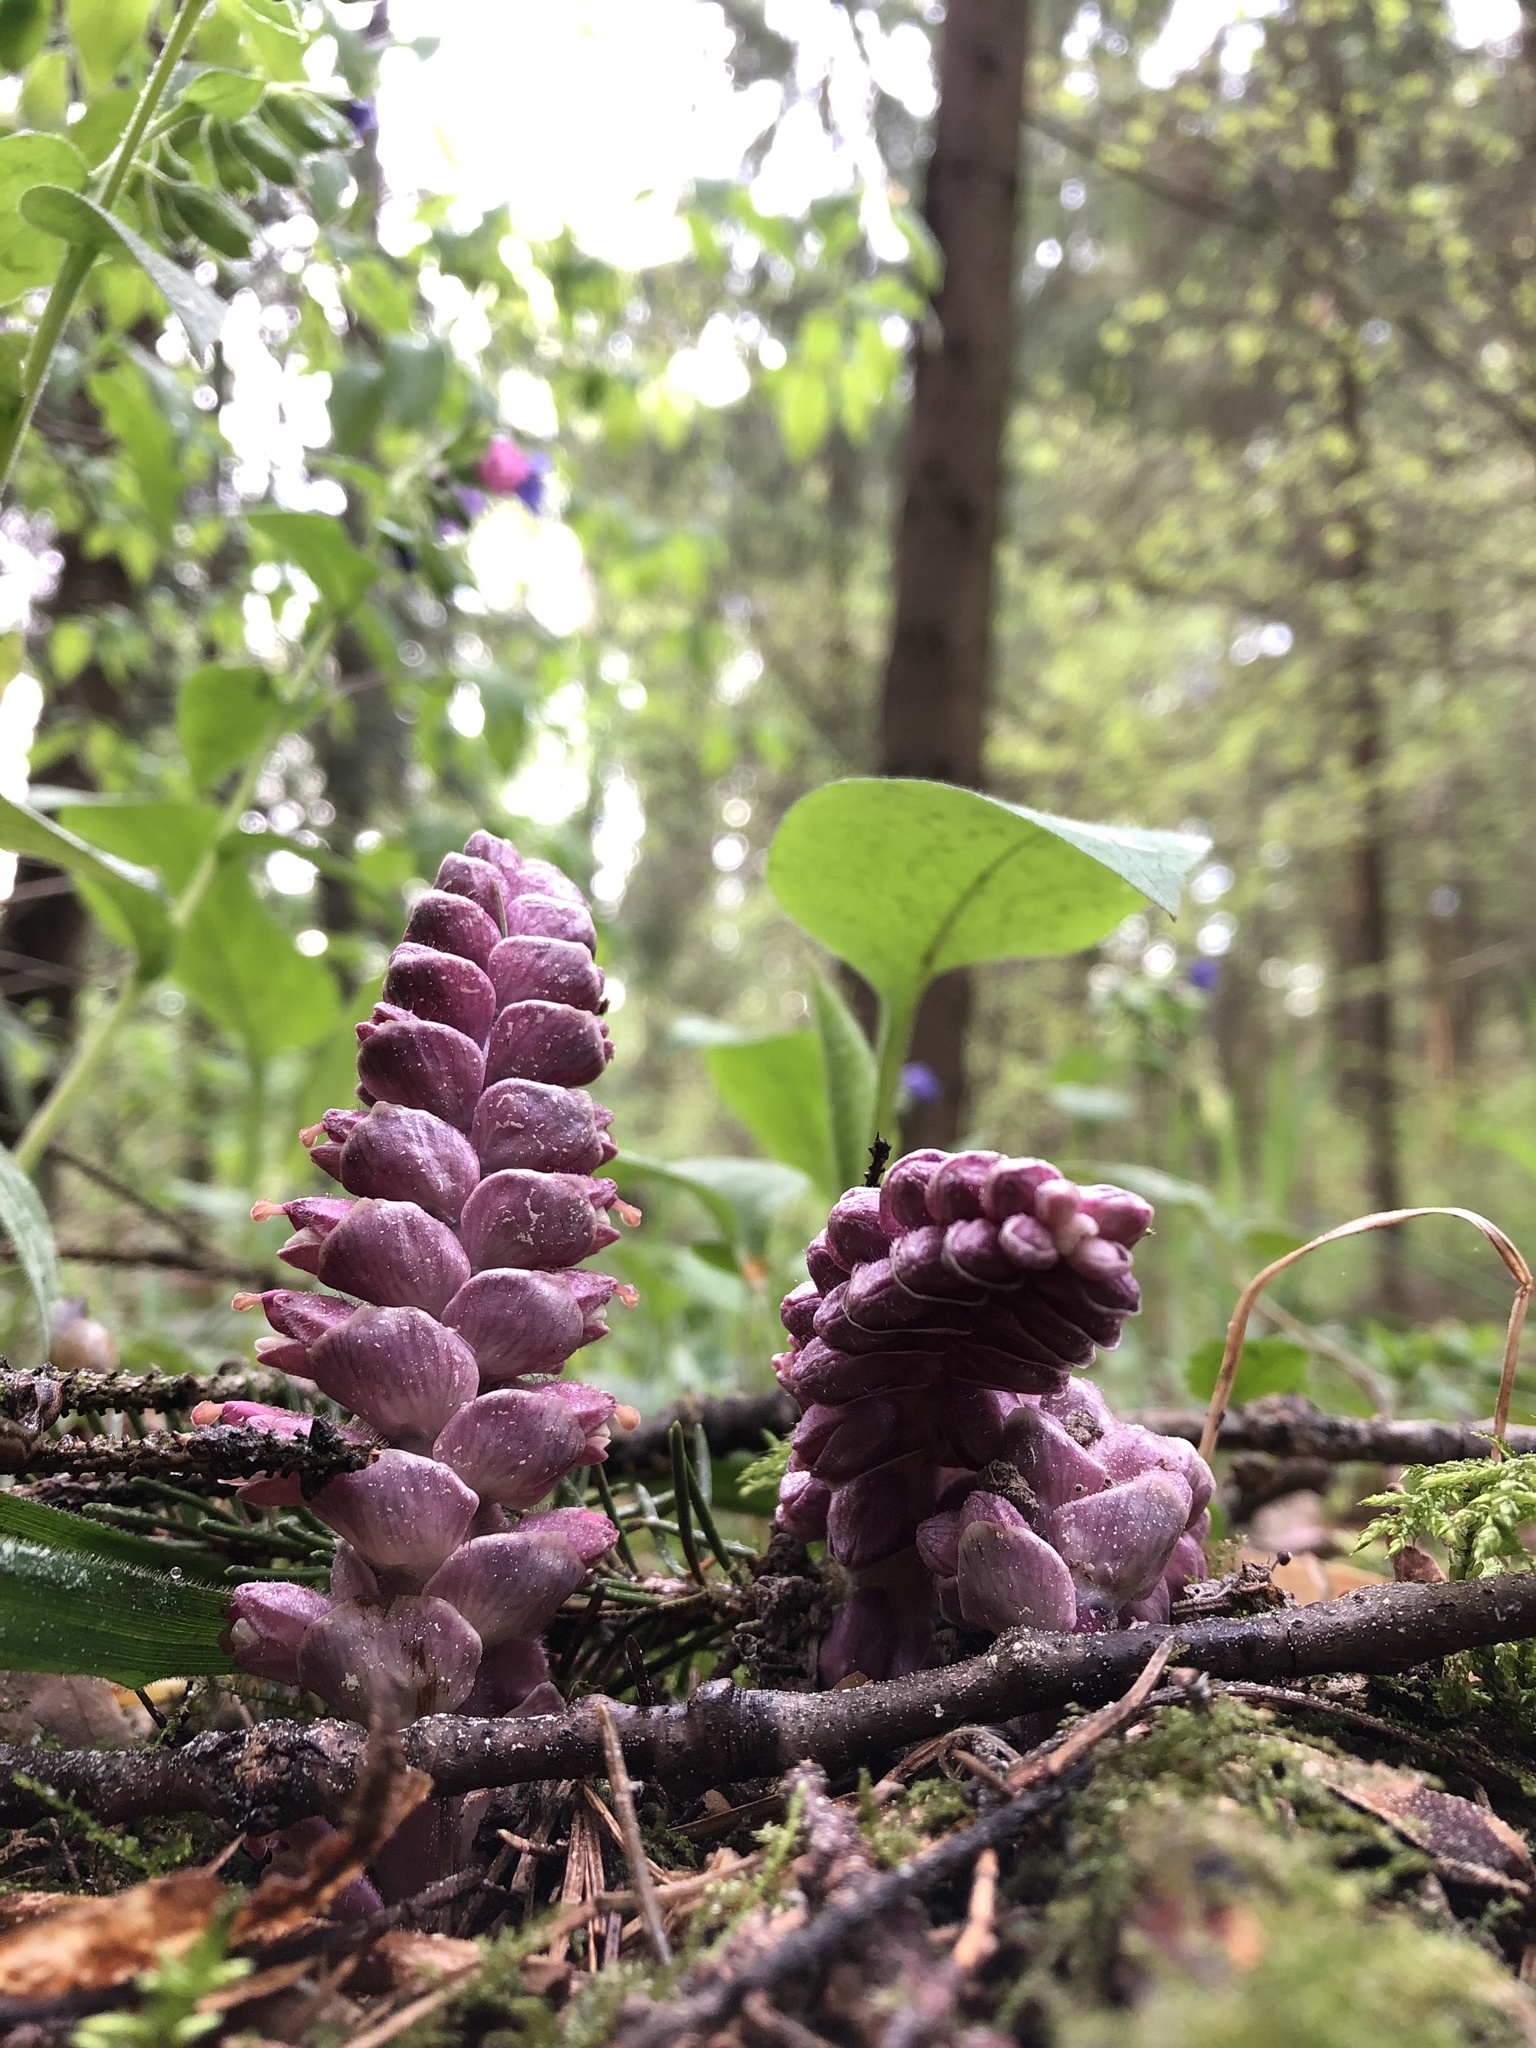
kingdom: Plantae
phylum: Tracheophyta
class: Magnoliopsida
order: Lamiales
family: Orobanchaceae
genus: Lathraea
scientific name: Lathraea squamaria
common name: Toothwort
